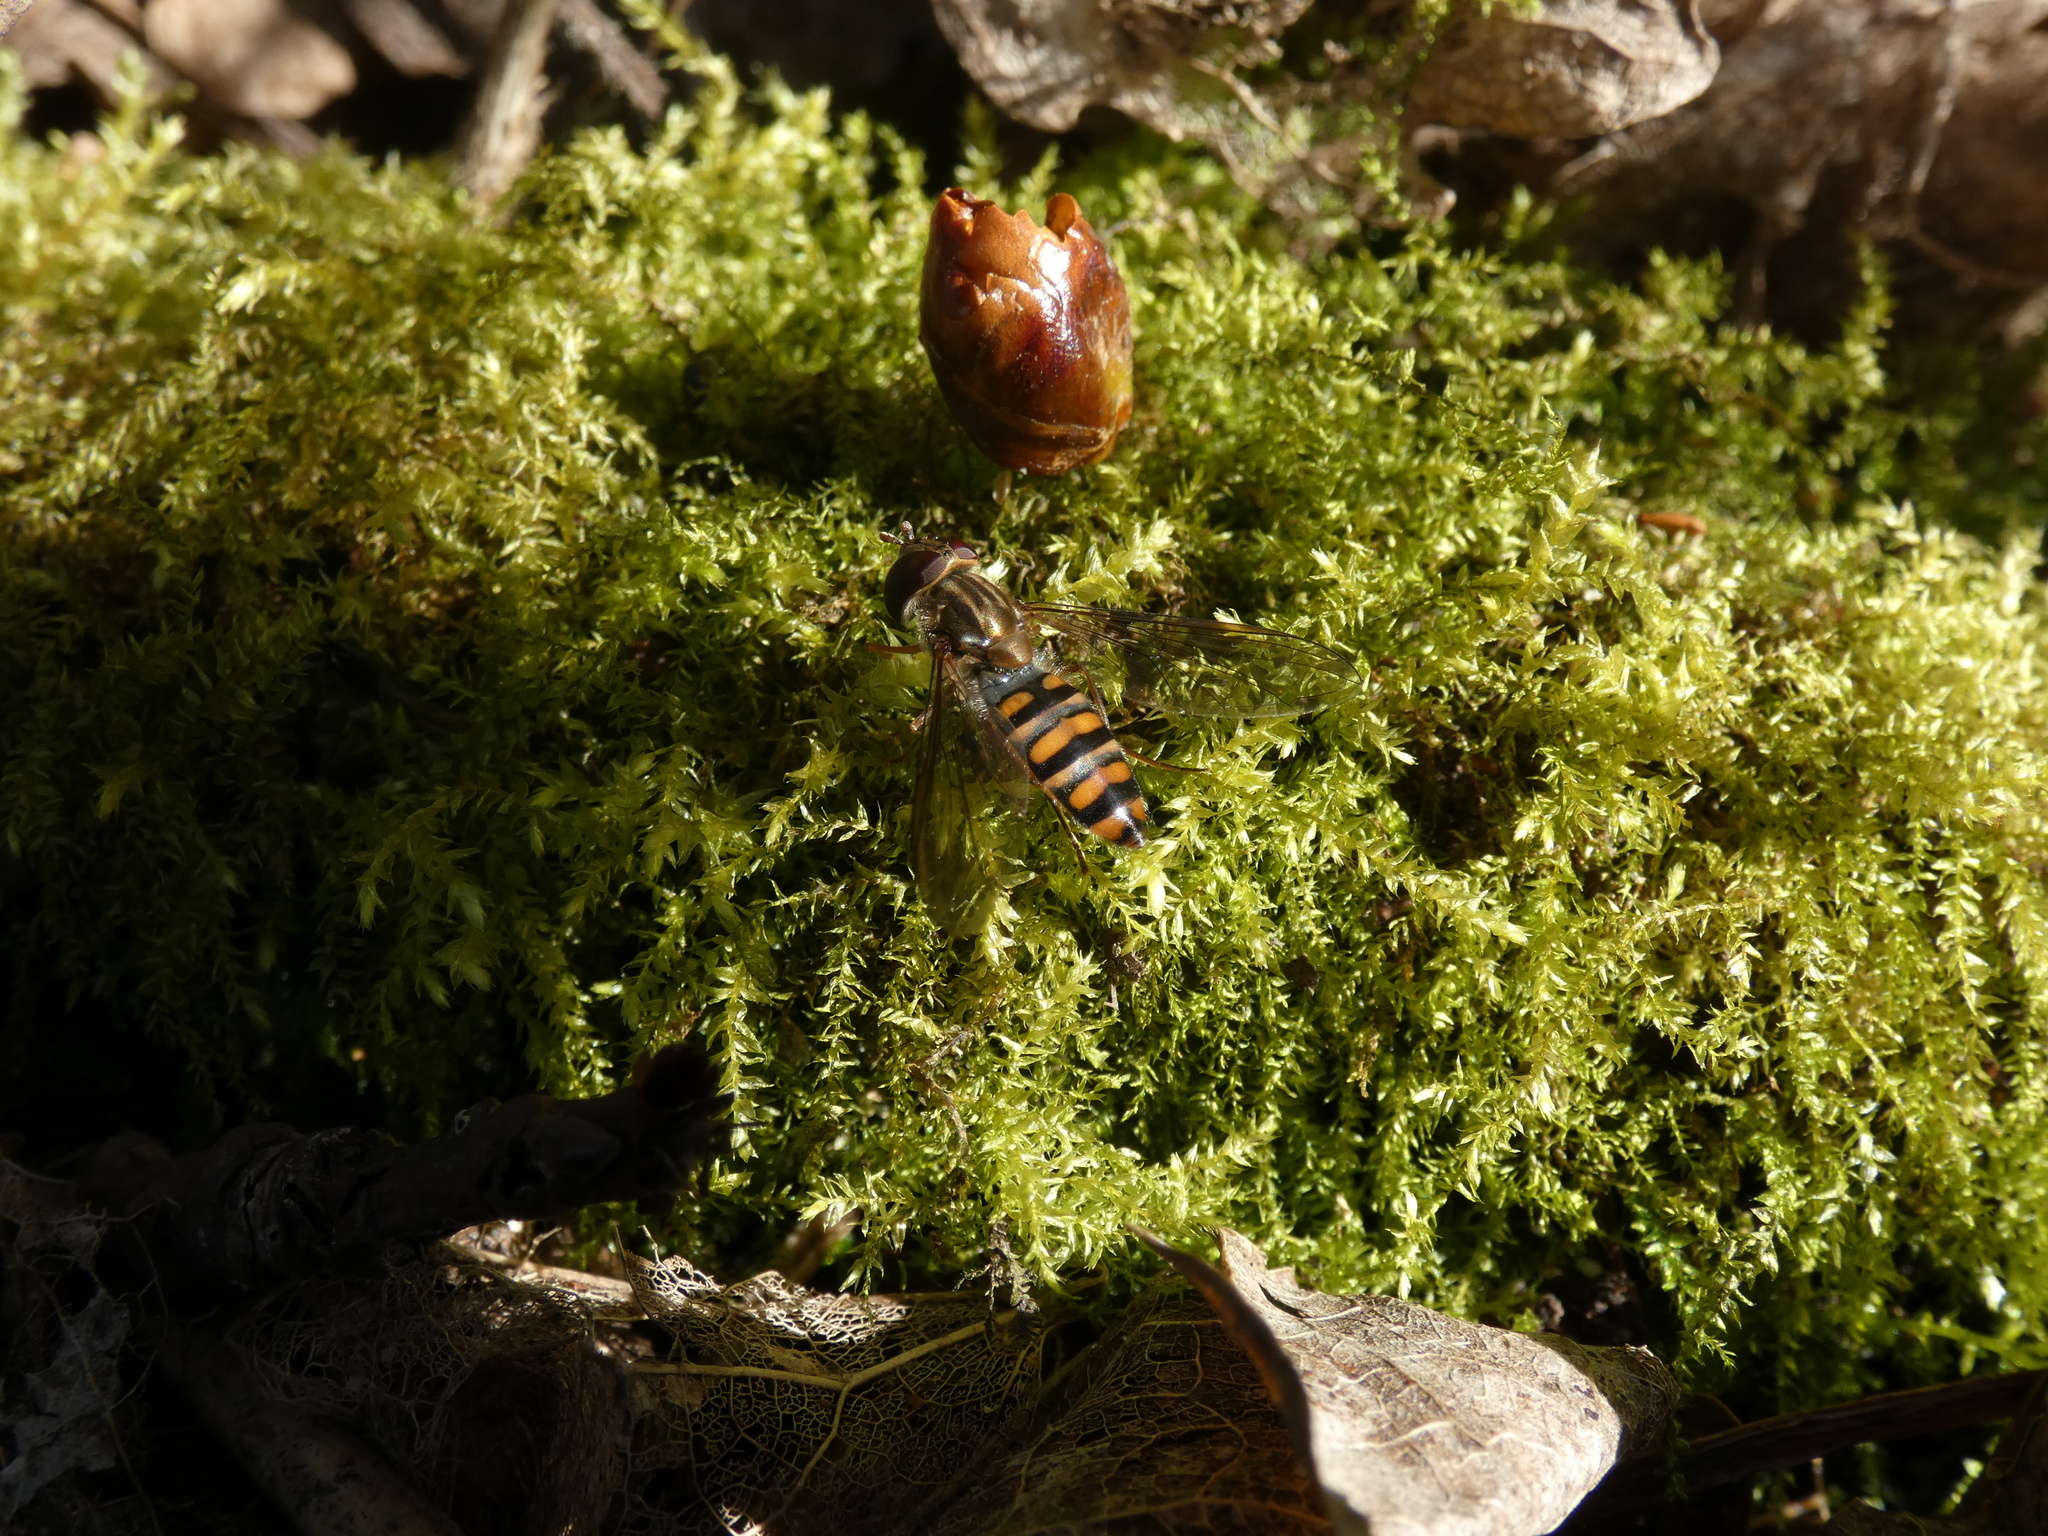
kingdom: Animalia
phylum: Arthropoda
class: Insecta
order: Diptera
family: Syrphidae
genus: Episyrphus
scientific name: Episyrphus balteatus
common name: Marmalade hoverfly
